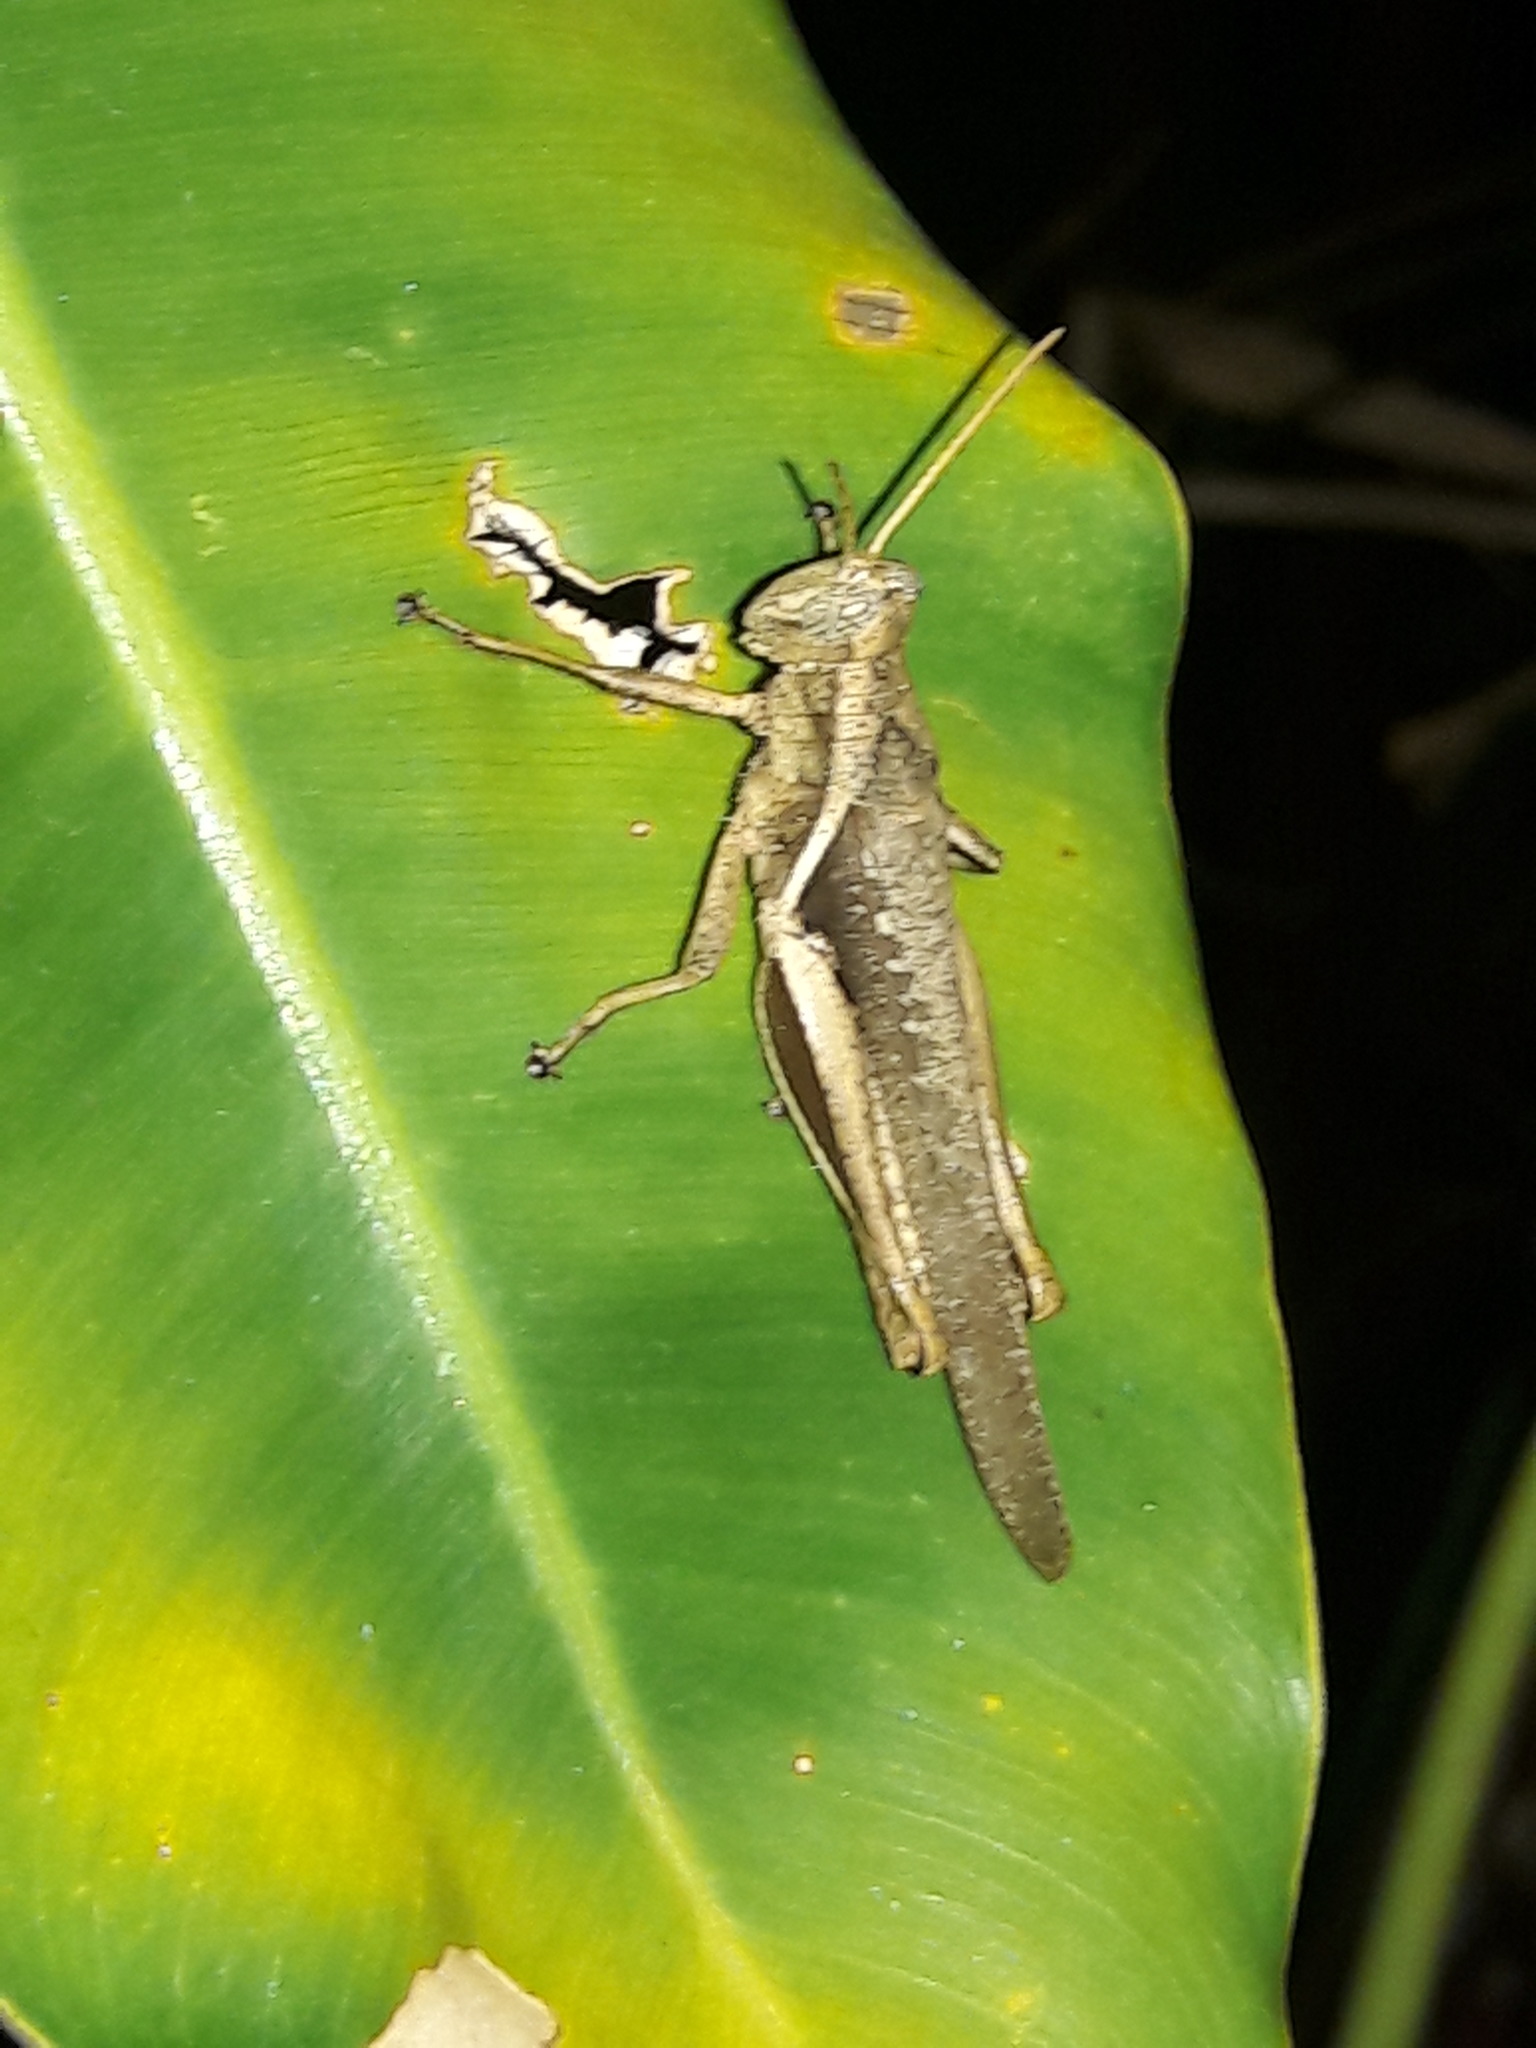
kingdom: Animalia
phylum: Arthropoda
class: Insecta
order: Orthoptera
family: Acrididae
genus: Abracris
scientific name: Abracris flavolineata
